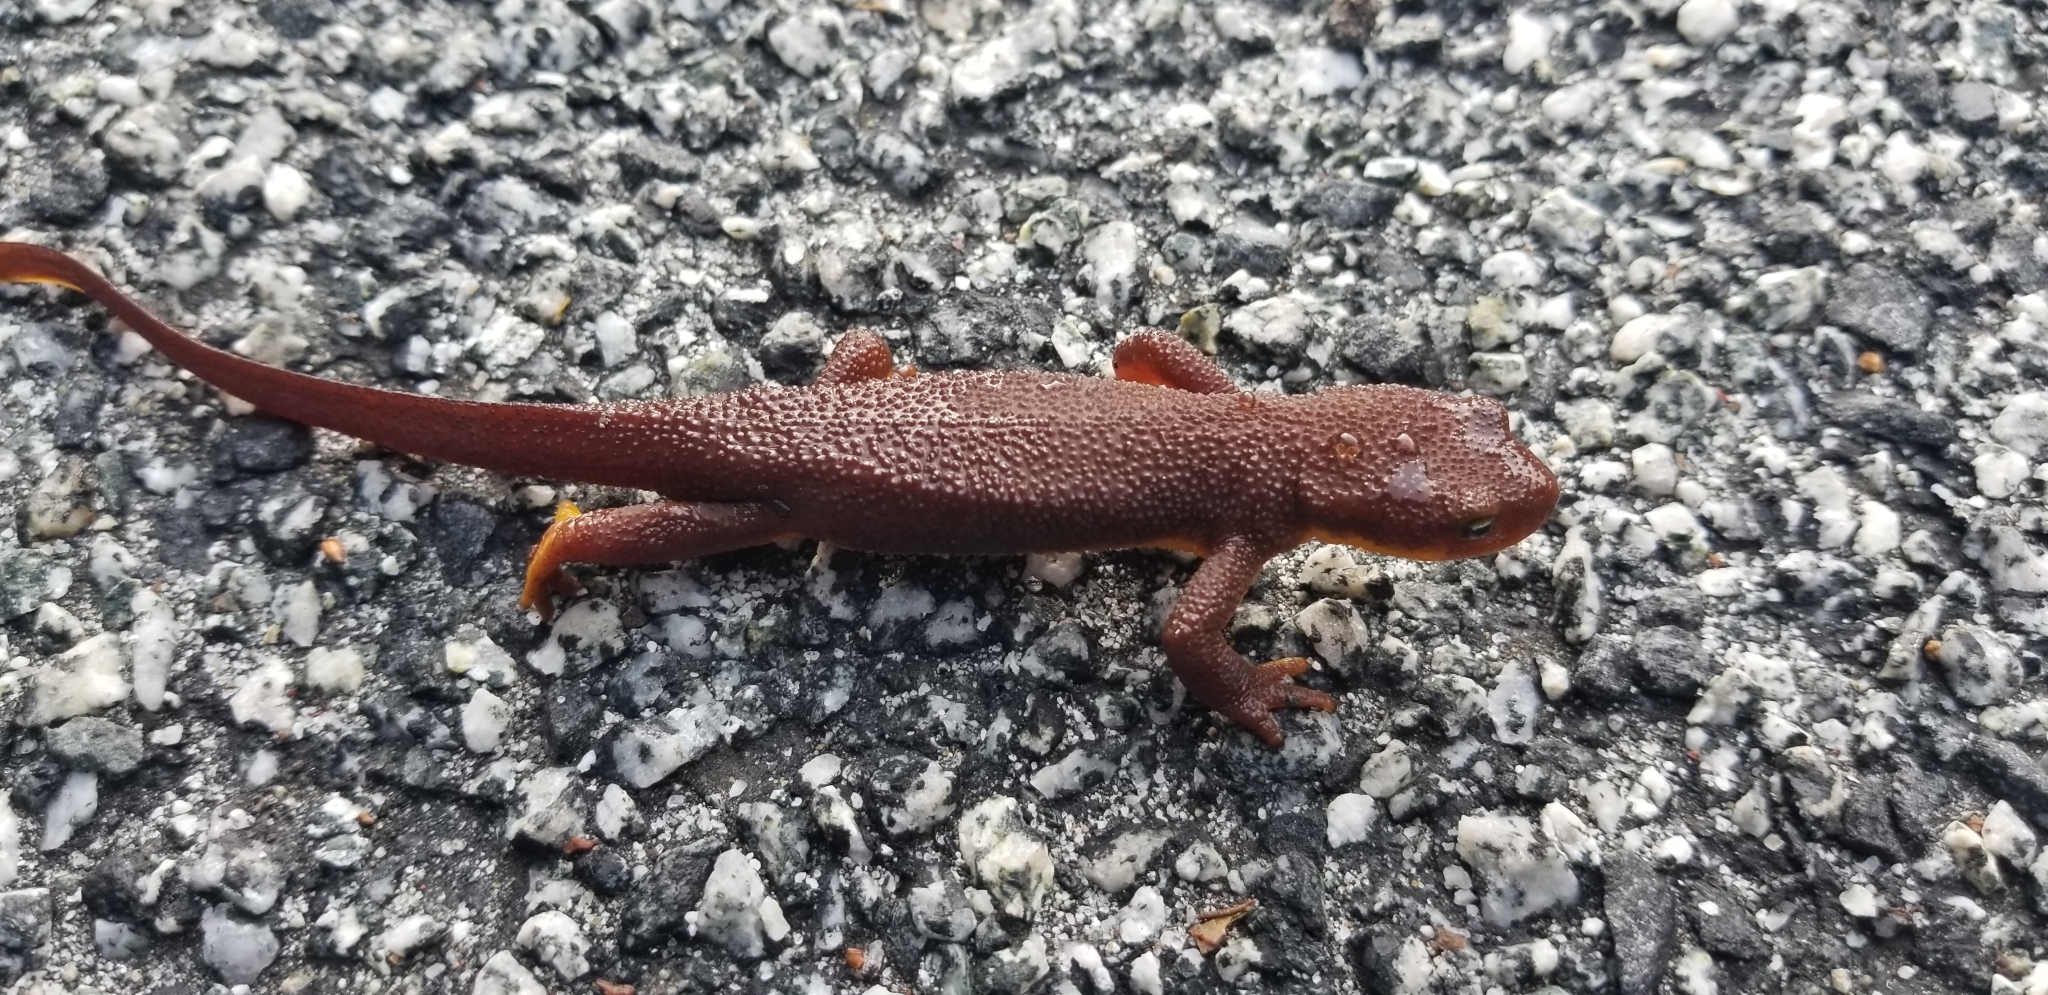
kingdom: Animalia
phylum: Chordata
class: Amphibia
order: Caudata
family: Salamandridae
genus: Taricha
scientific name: Taricha granulosa
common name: Roughskin newt
